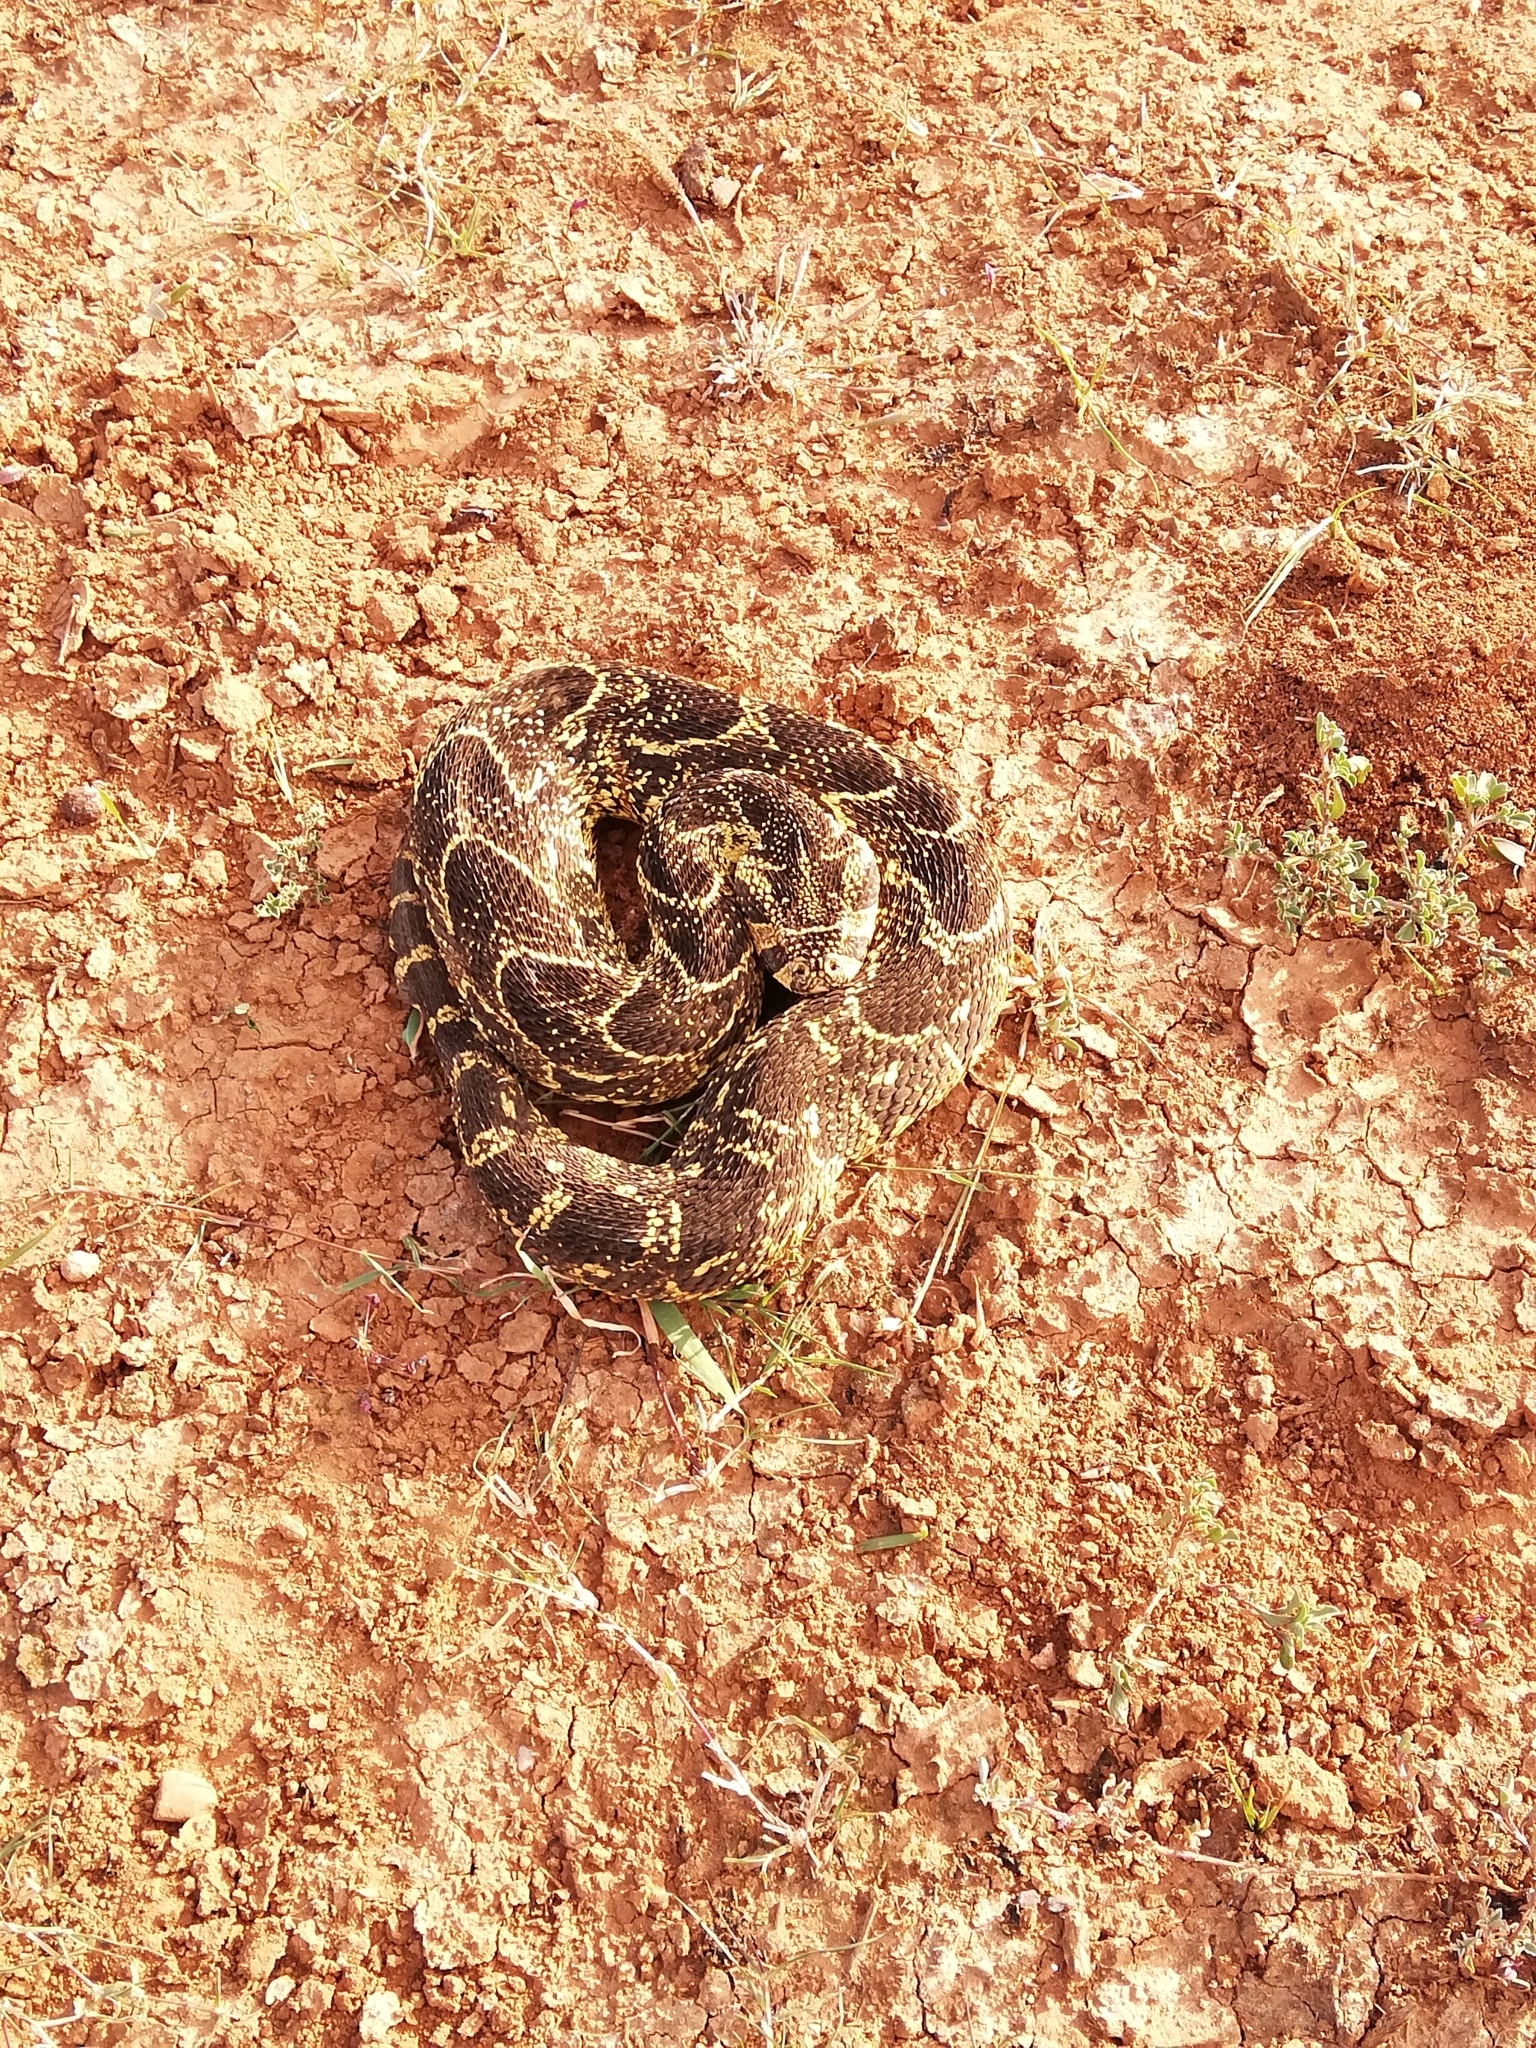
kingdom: Animalia
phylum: Chordata
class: Squamata
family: Viperidae
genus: Bitis
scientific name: Bitis arietans
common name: Puff adder
